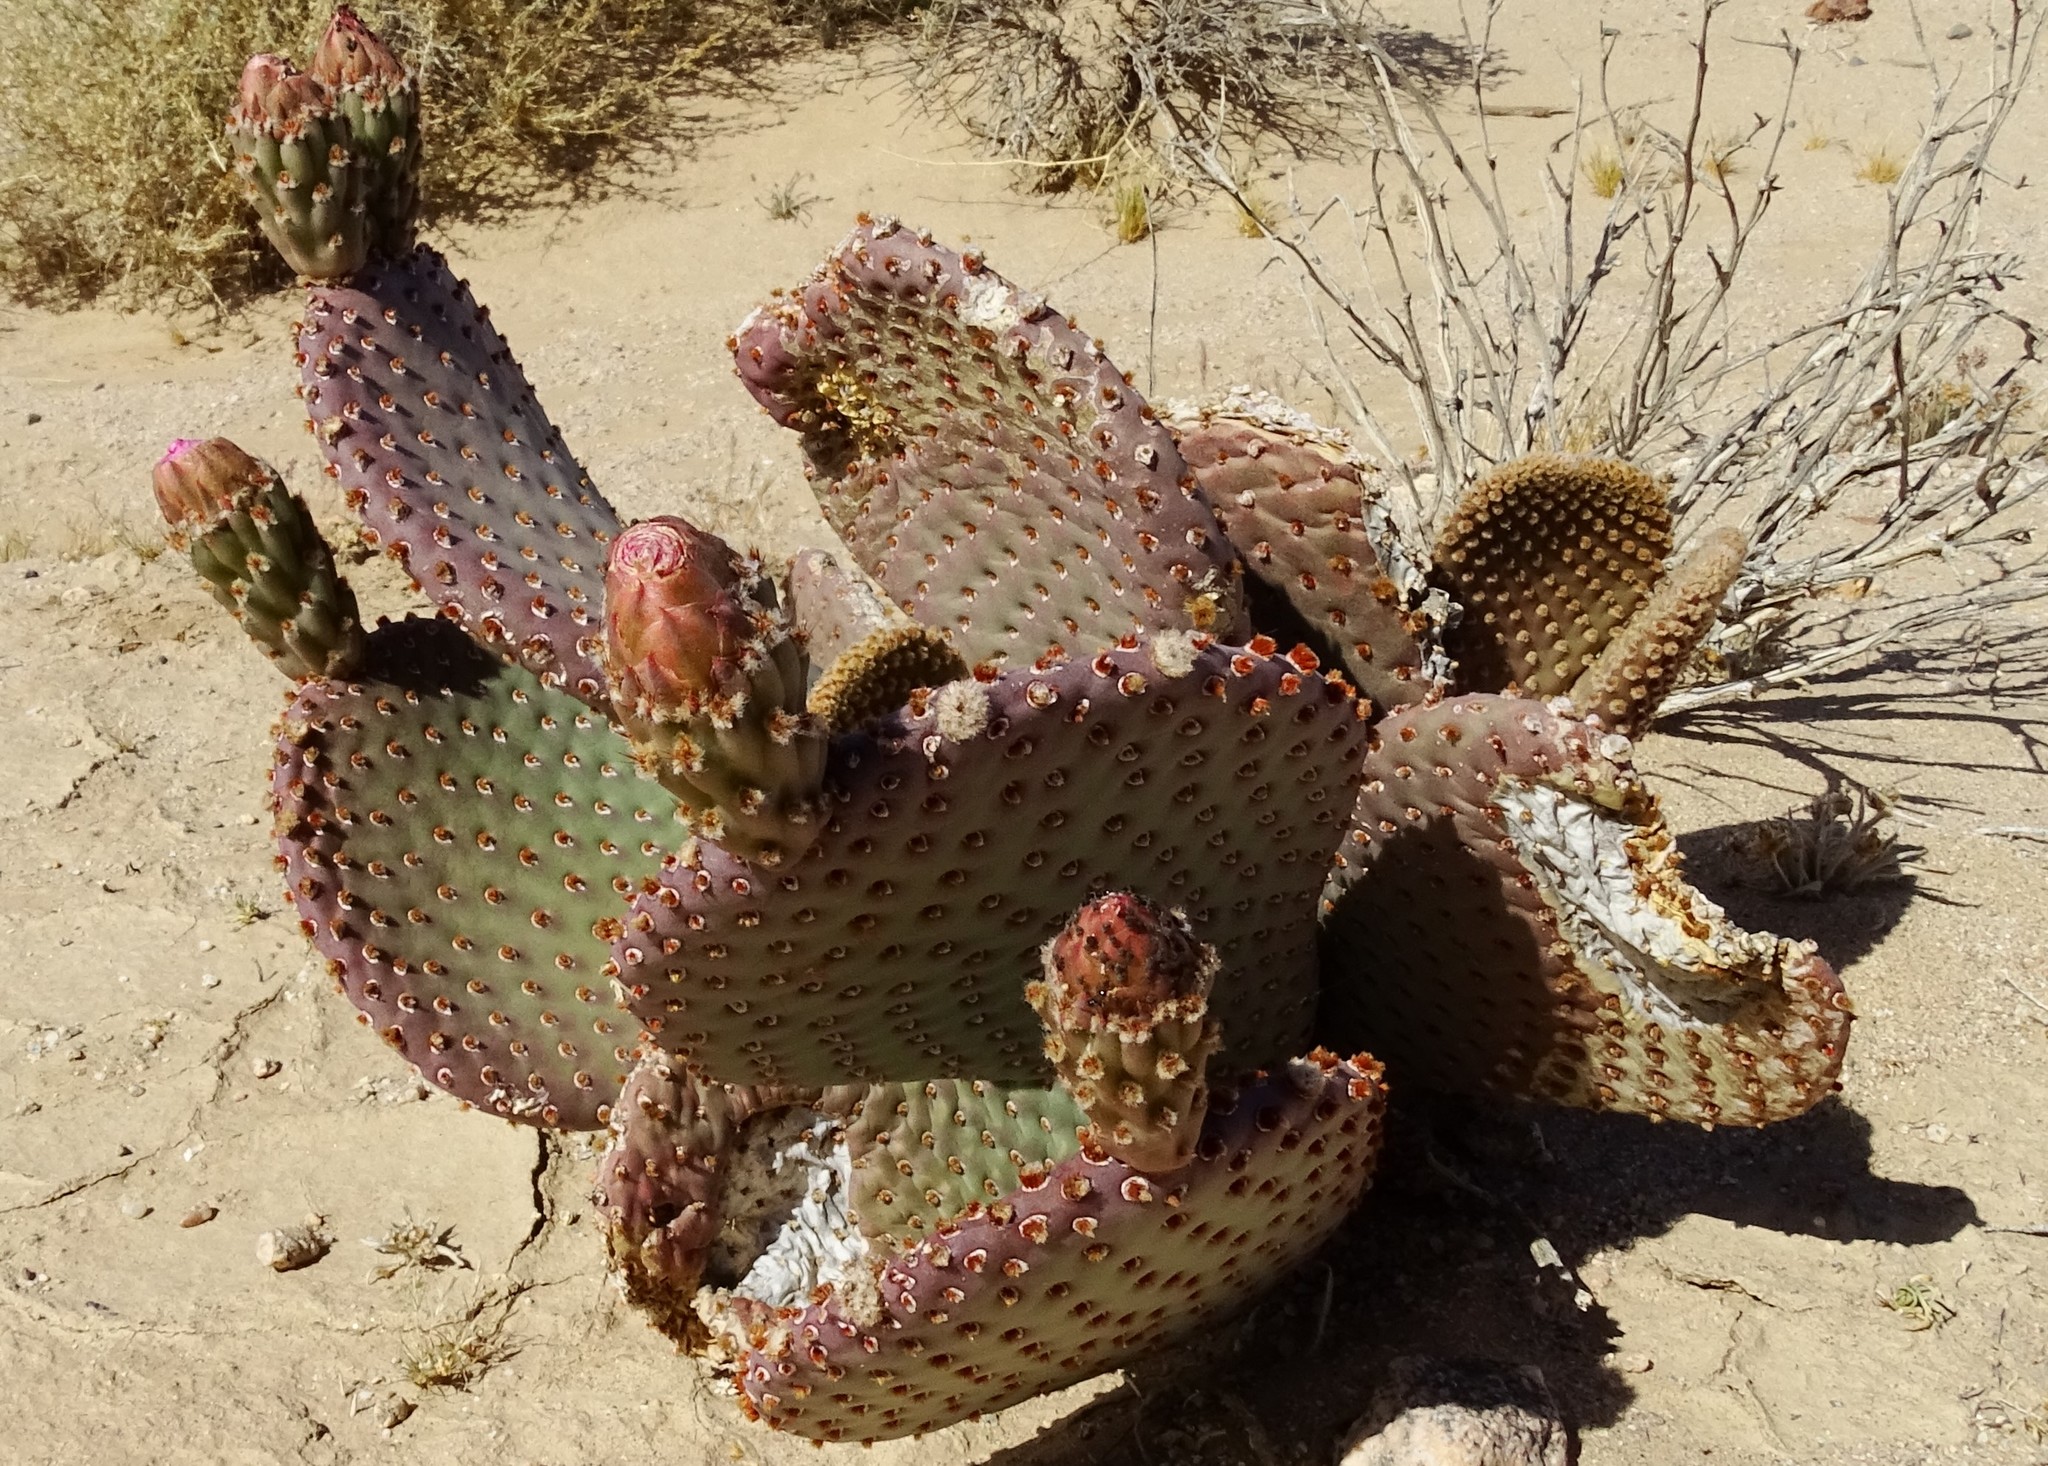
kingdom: Plantae
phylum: Tracheophyta
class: Magnoliopsida
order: Caryophyllales
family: Cactaceae
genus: Opuntia
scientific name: Opuntia basilaris
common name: Beavertail prickly-pear
